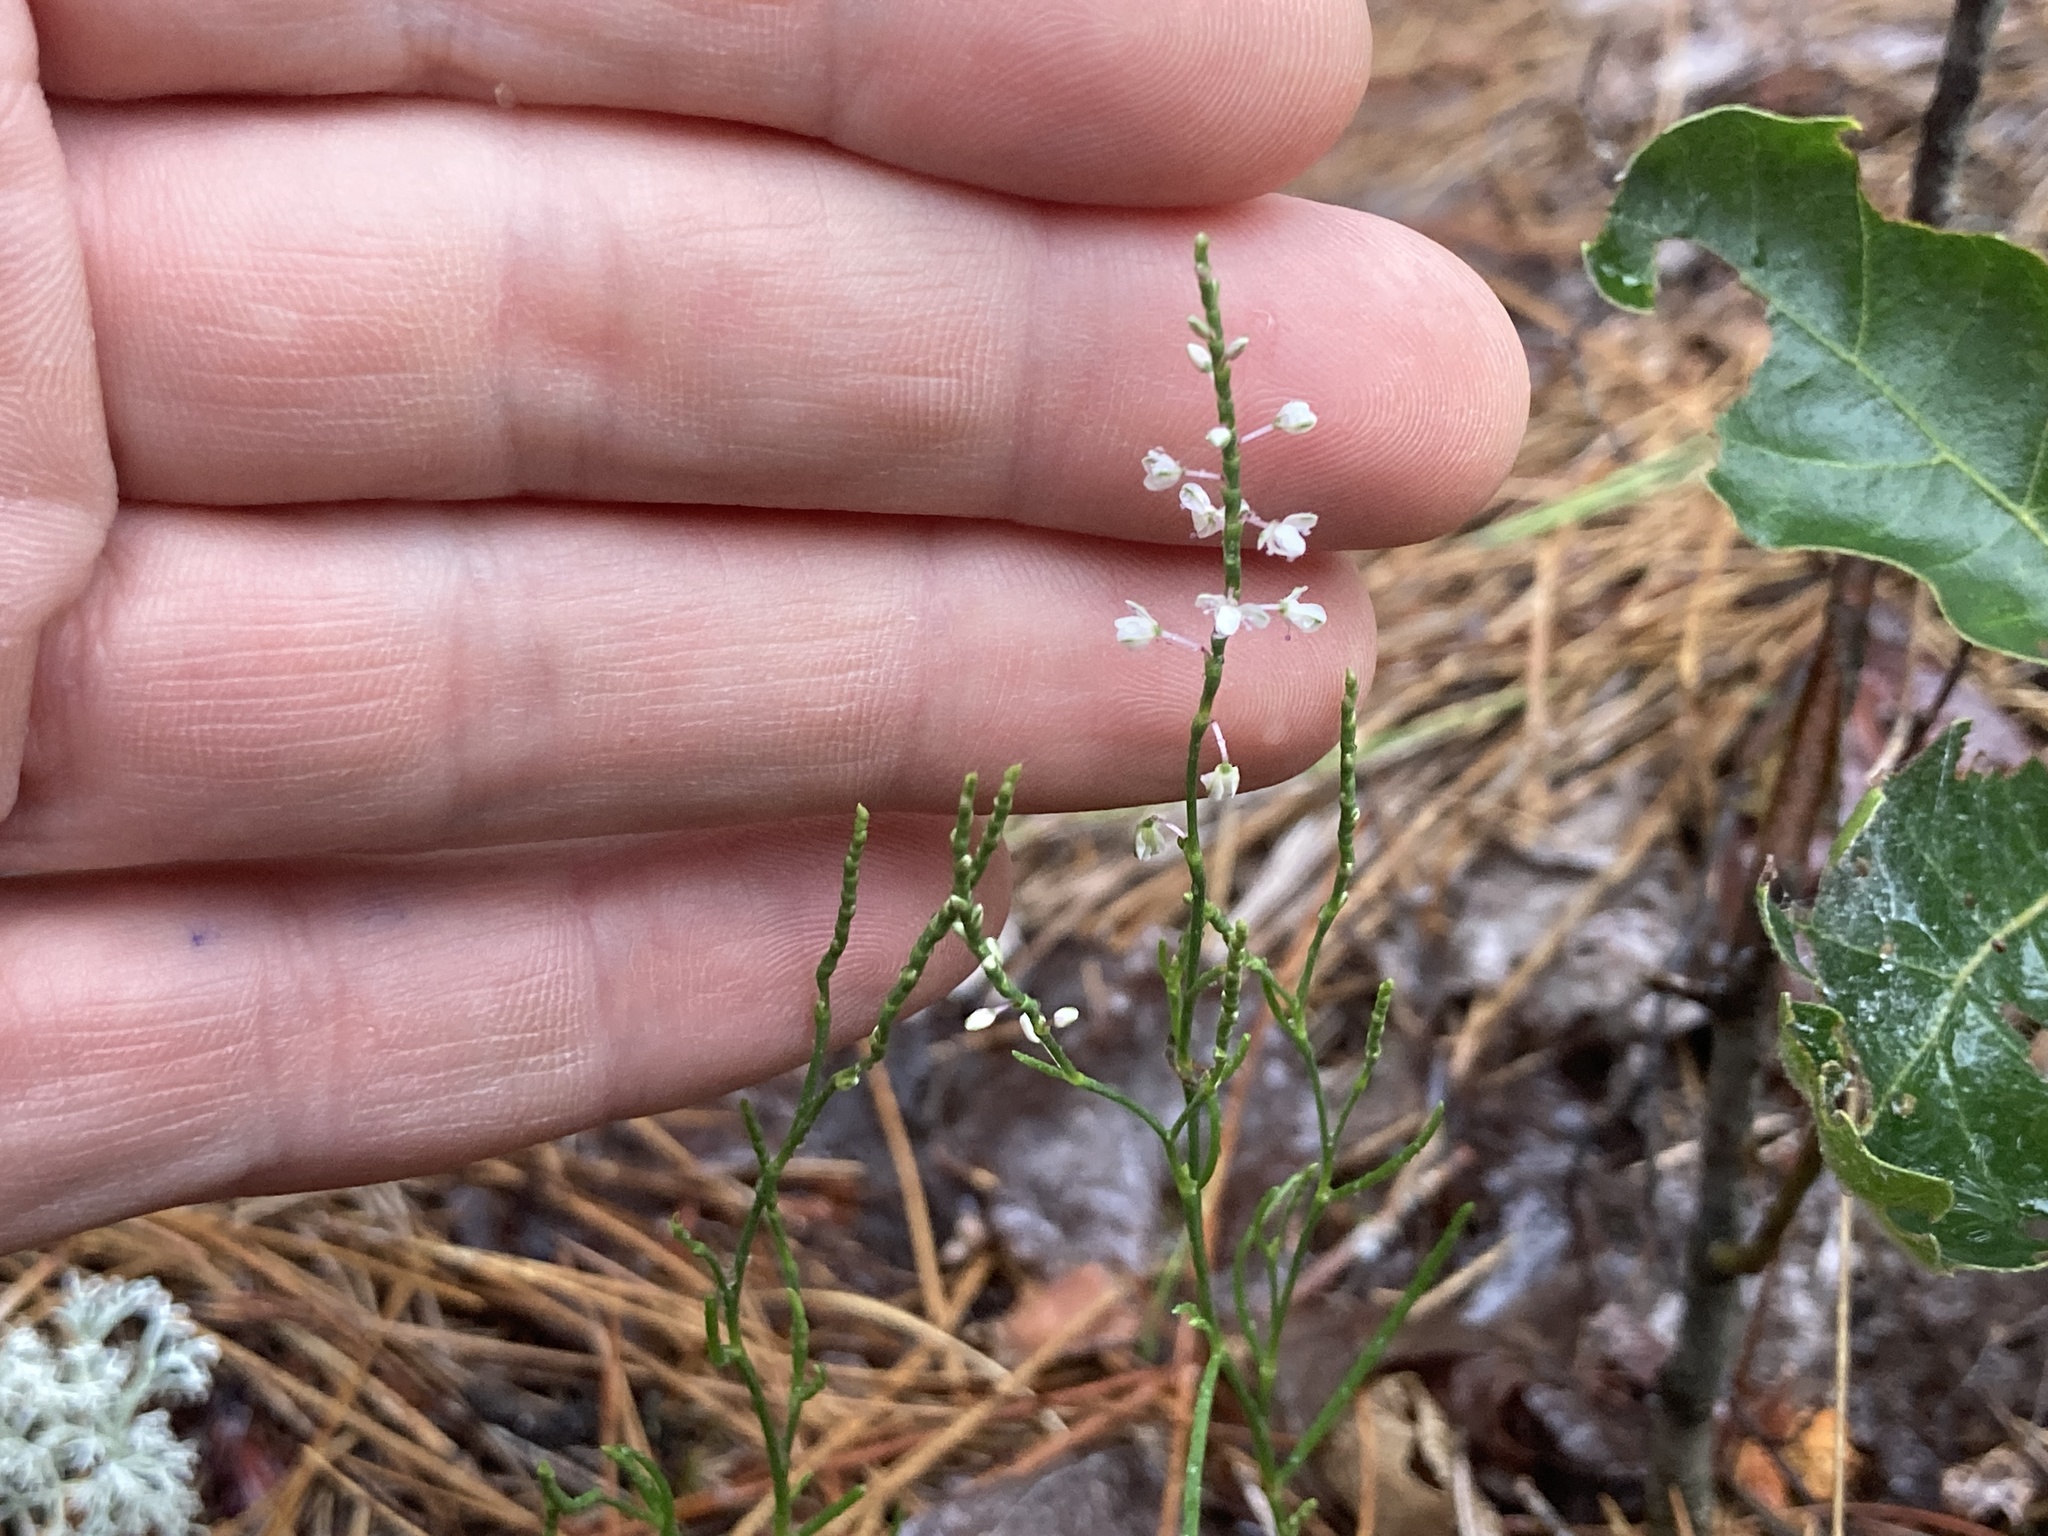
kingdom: Plantae
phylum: Tracheophyta
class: Magnoliopsida
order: Caryophyllales
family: Polygonaceae
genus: Polygonella
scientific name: Polygonella articulata
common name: Coastal jointweed
